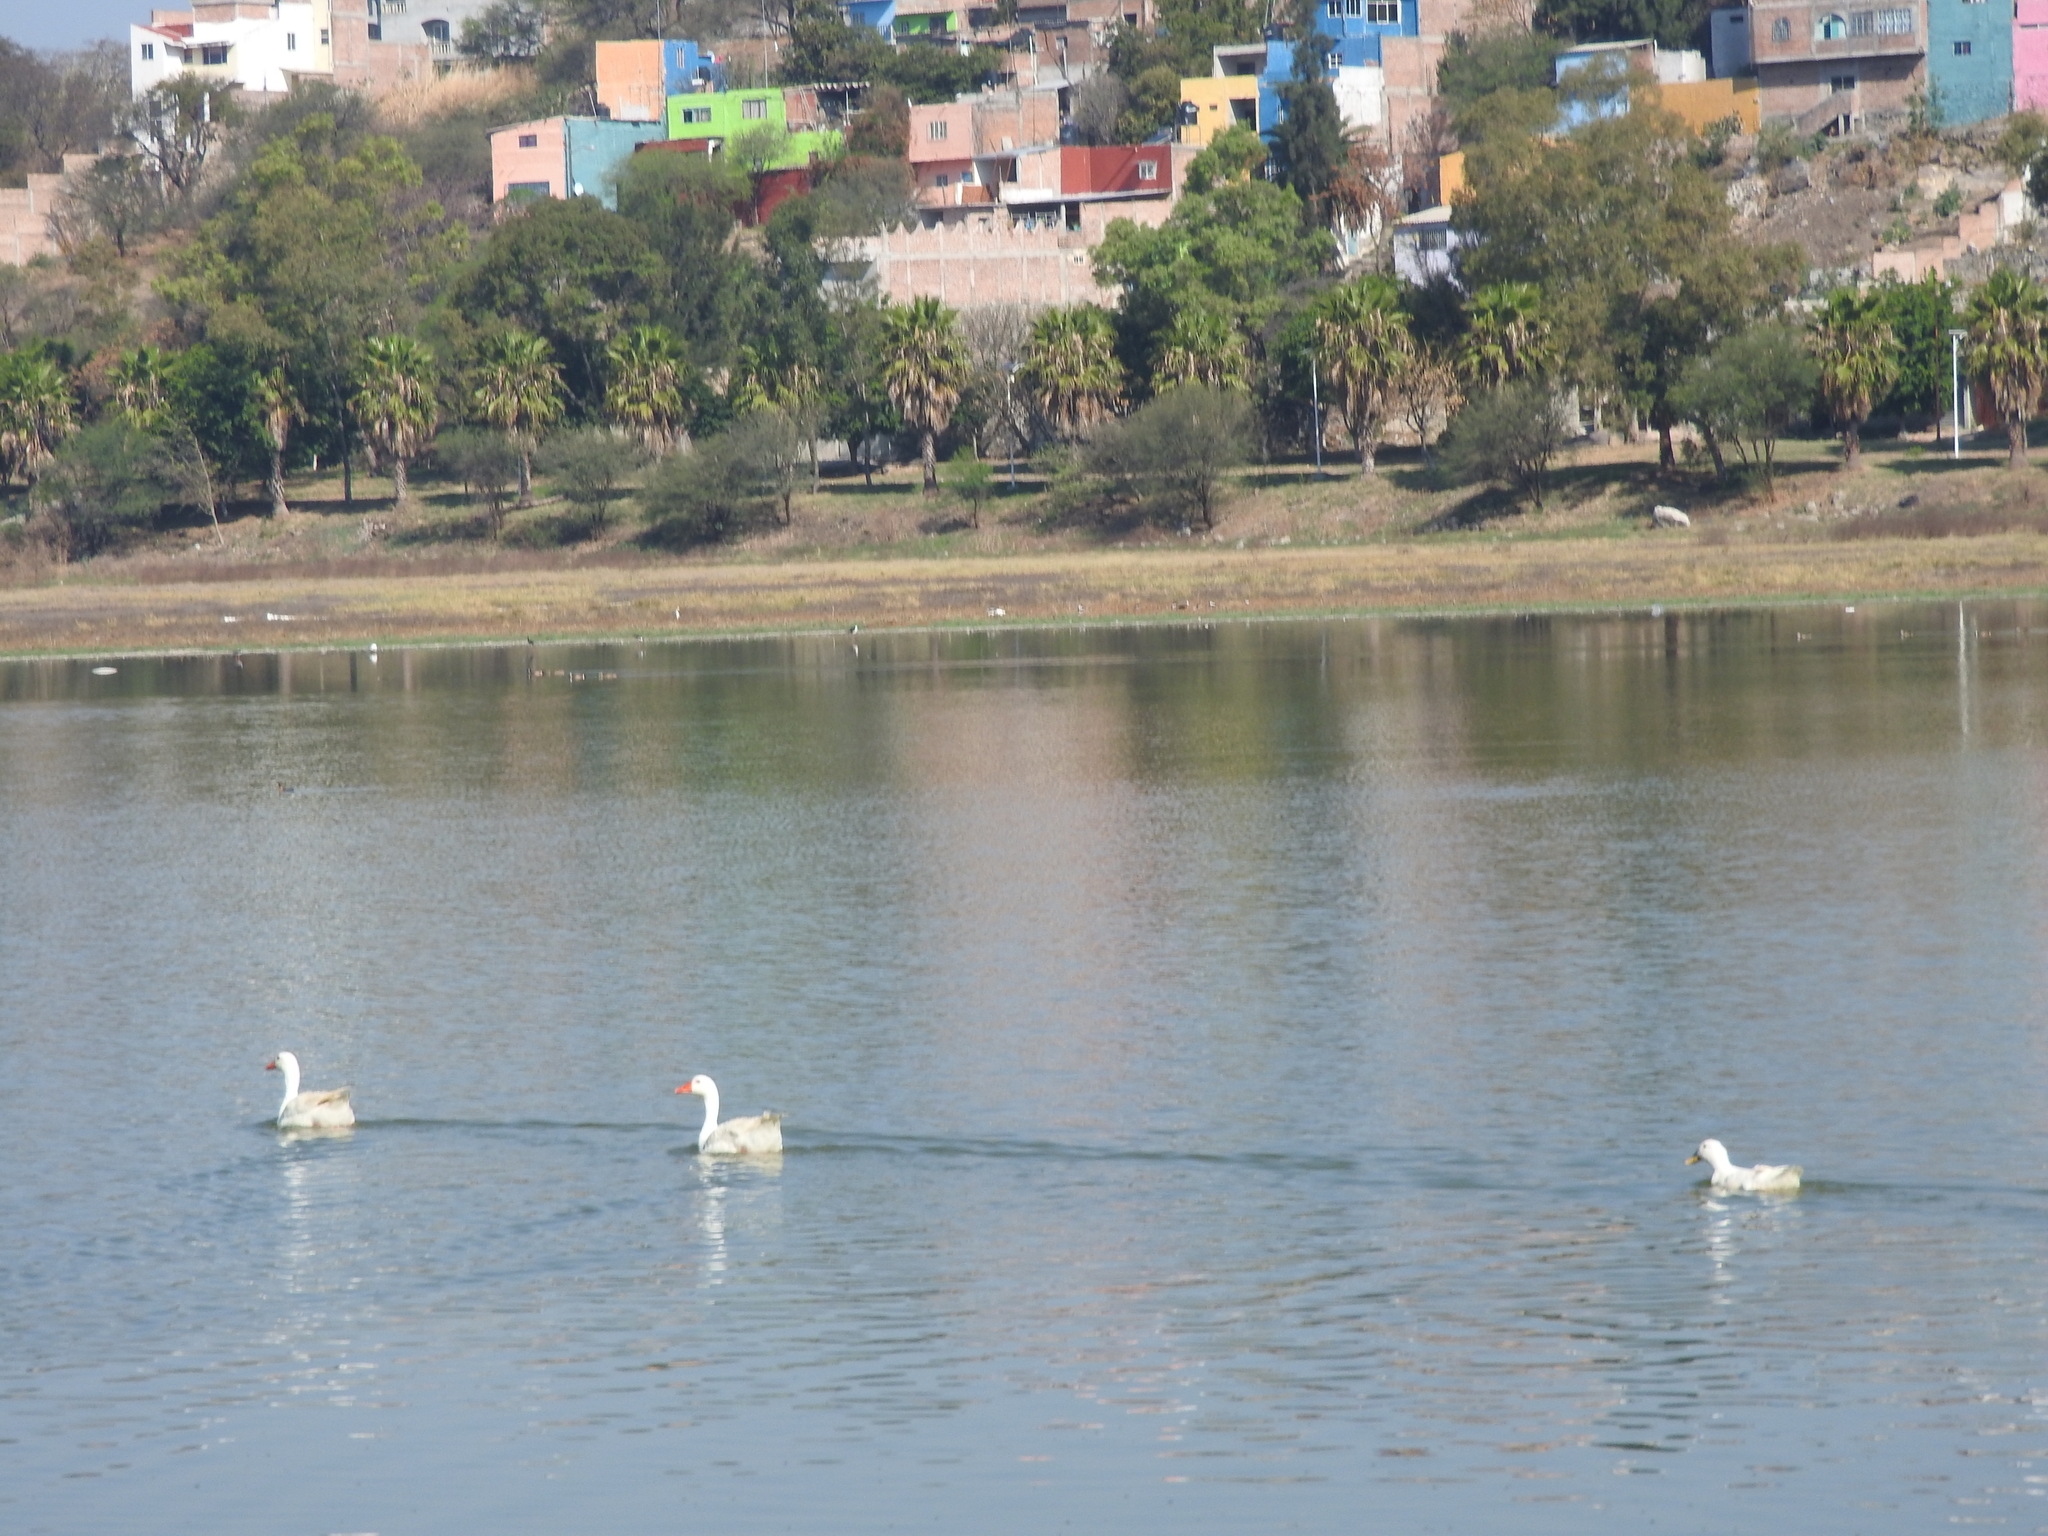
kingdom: Animalia
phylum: Chordata
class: Aves
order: Anseriformes
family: Anatidae
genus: Anser
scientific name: Anser anser
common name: Greylag goose
